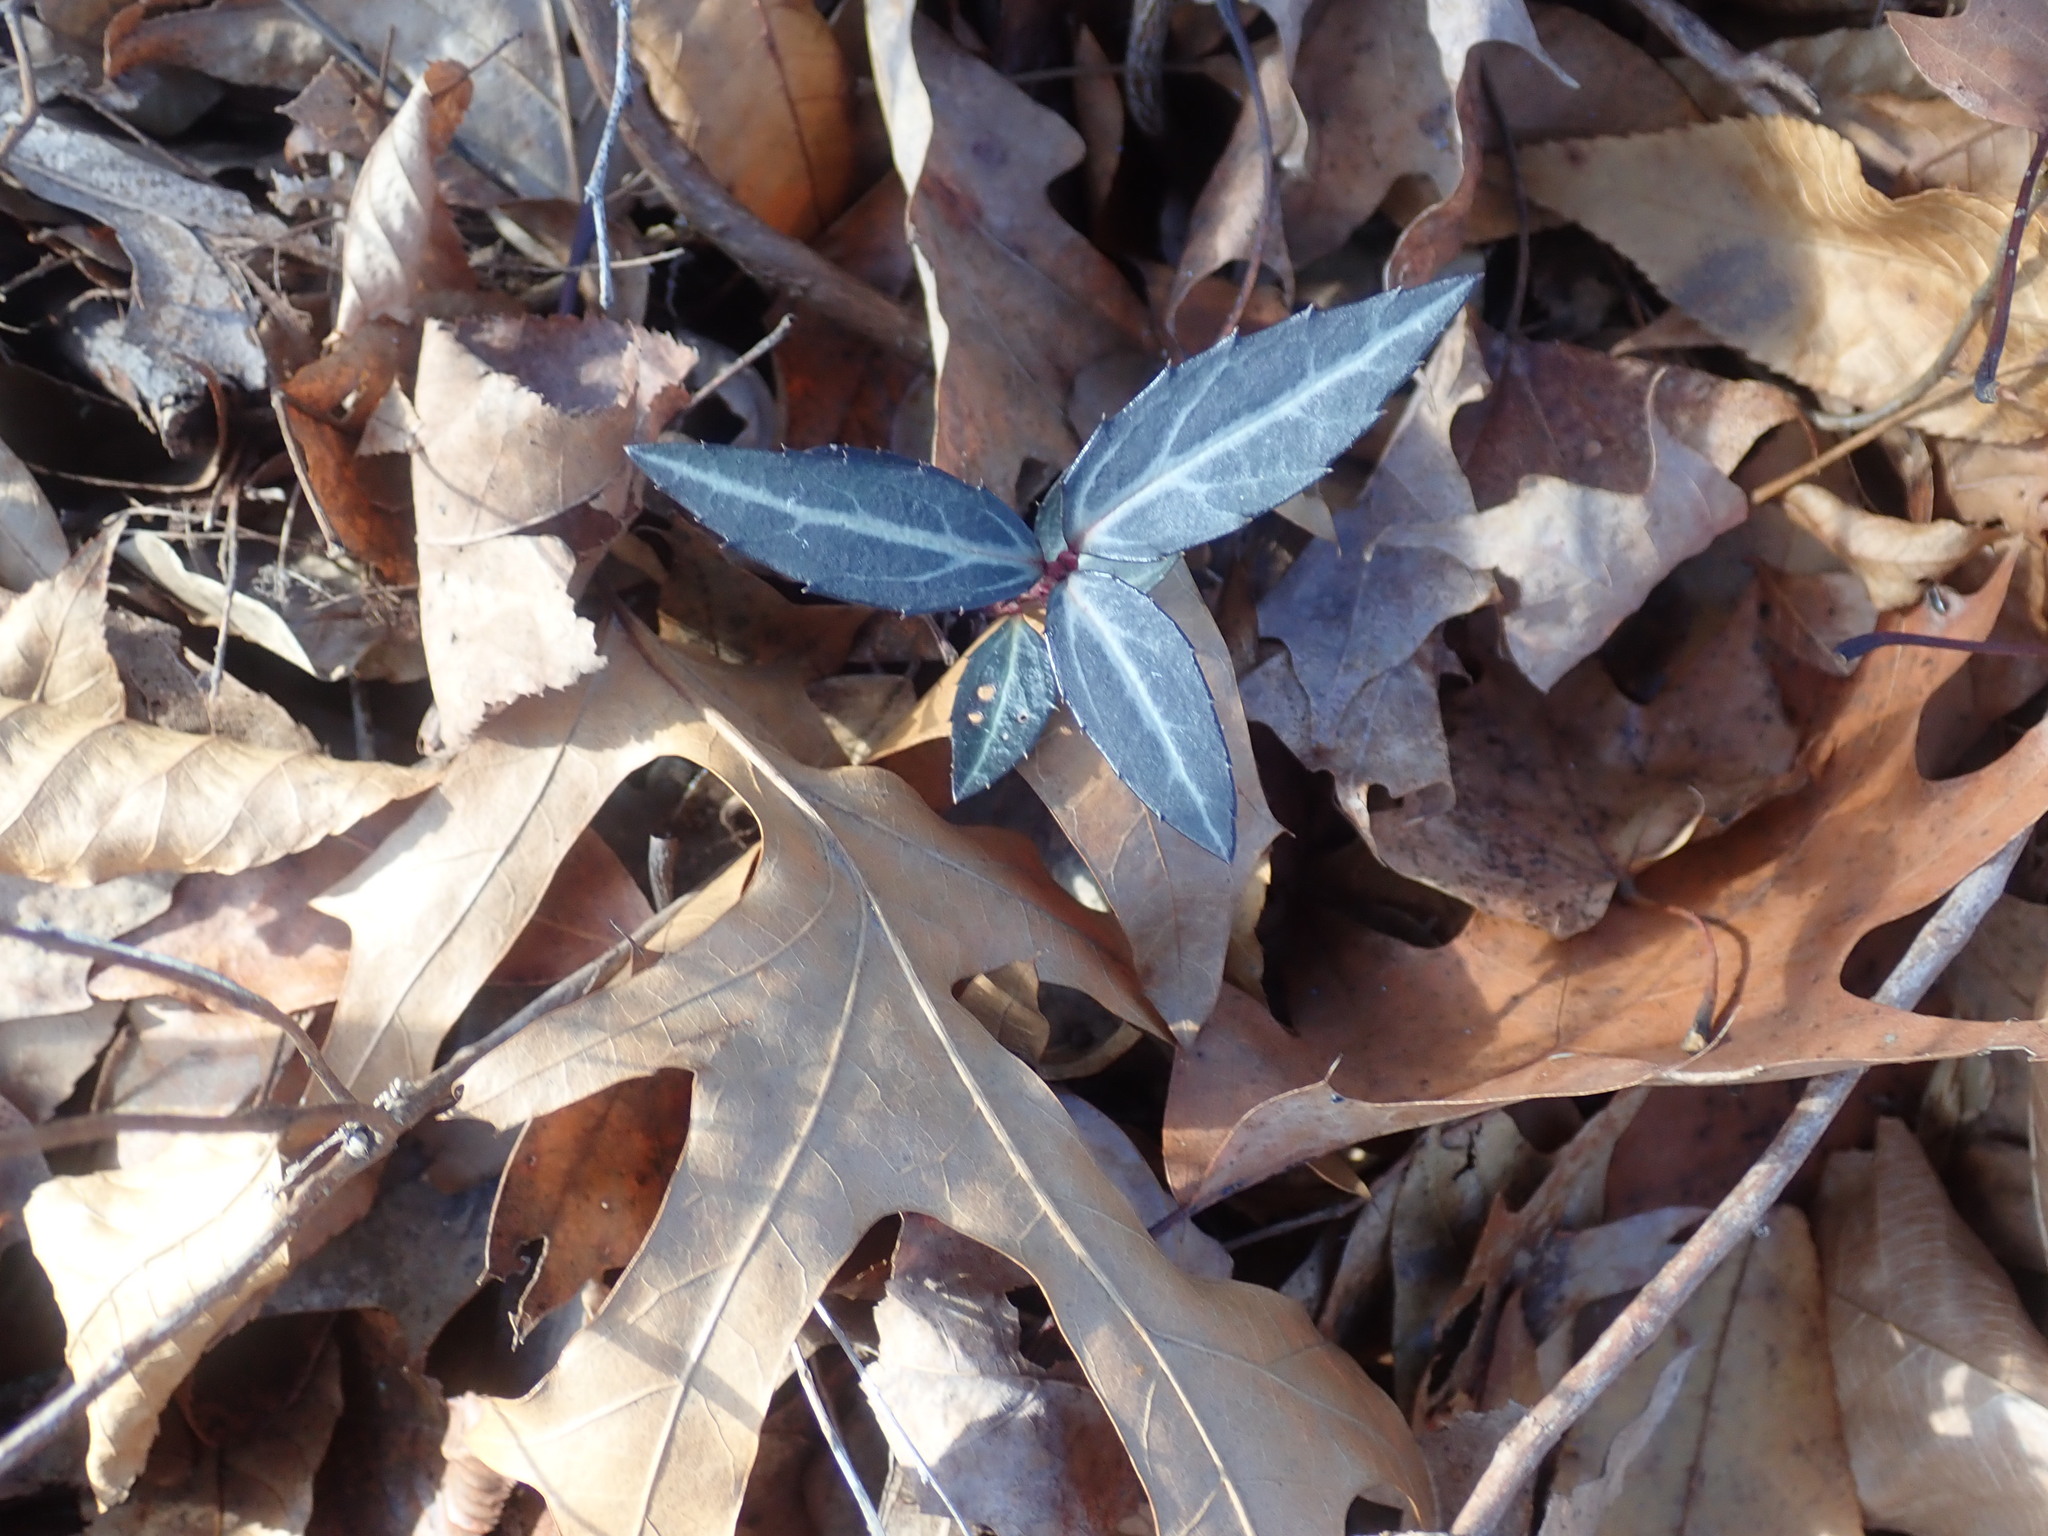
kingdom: Plantae
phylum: Tracheophyta
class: Magnoliopsida
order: Ericales
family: Ericaceae
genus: Chimaphila
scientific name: Chimaphila maculata
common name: Spotted pipsissewa
